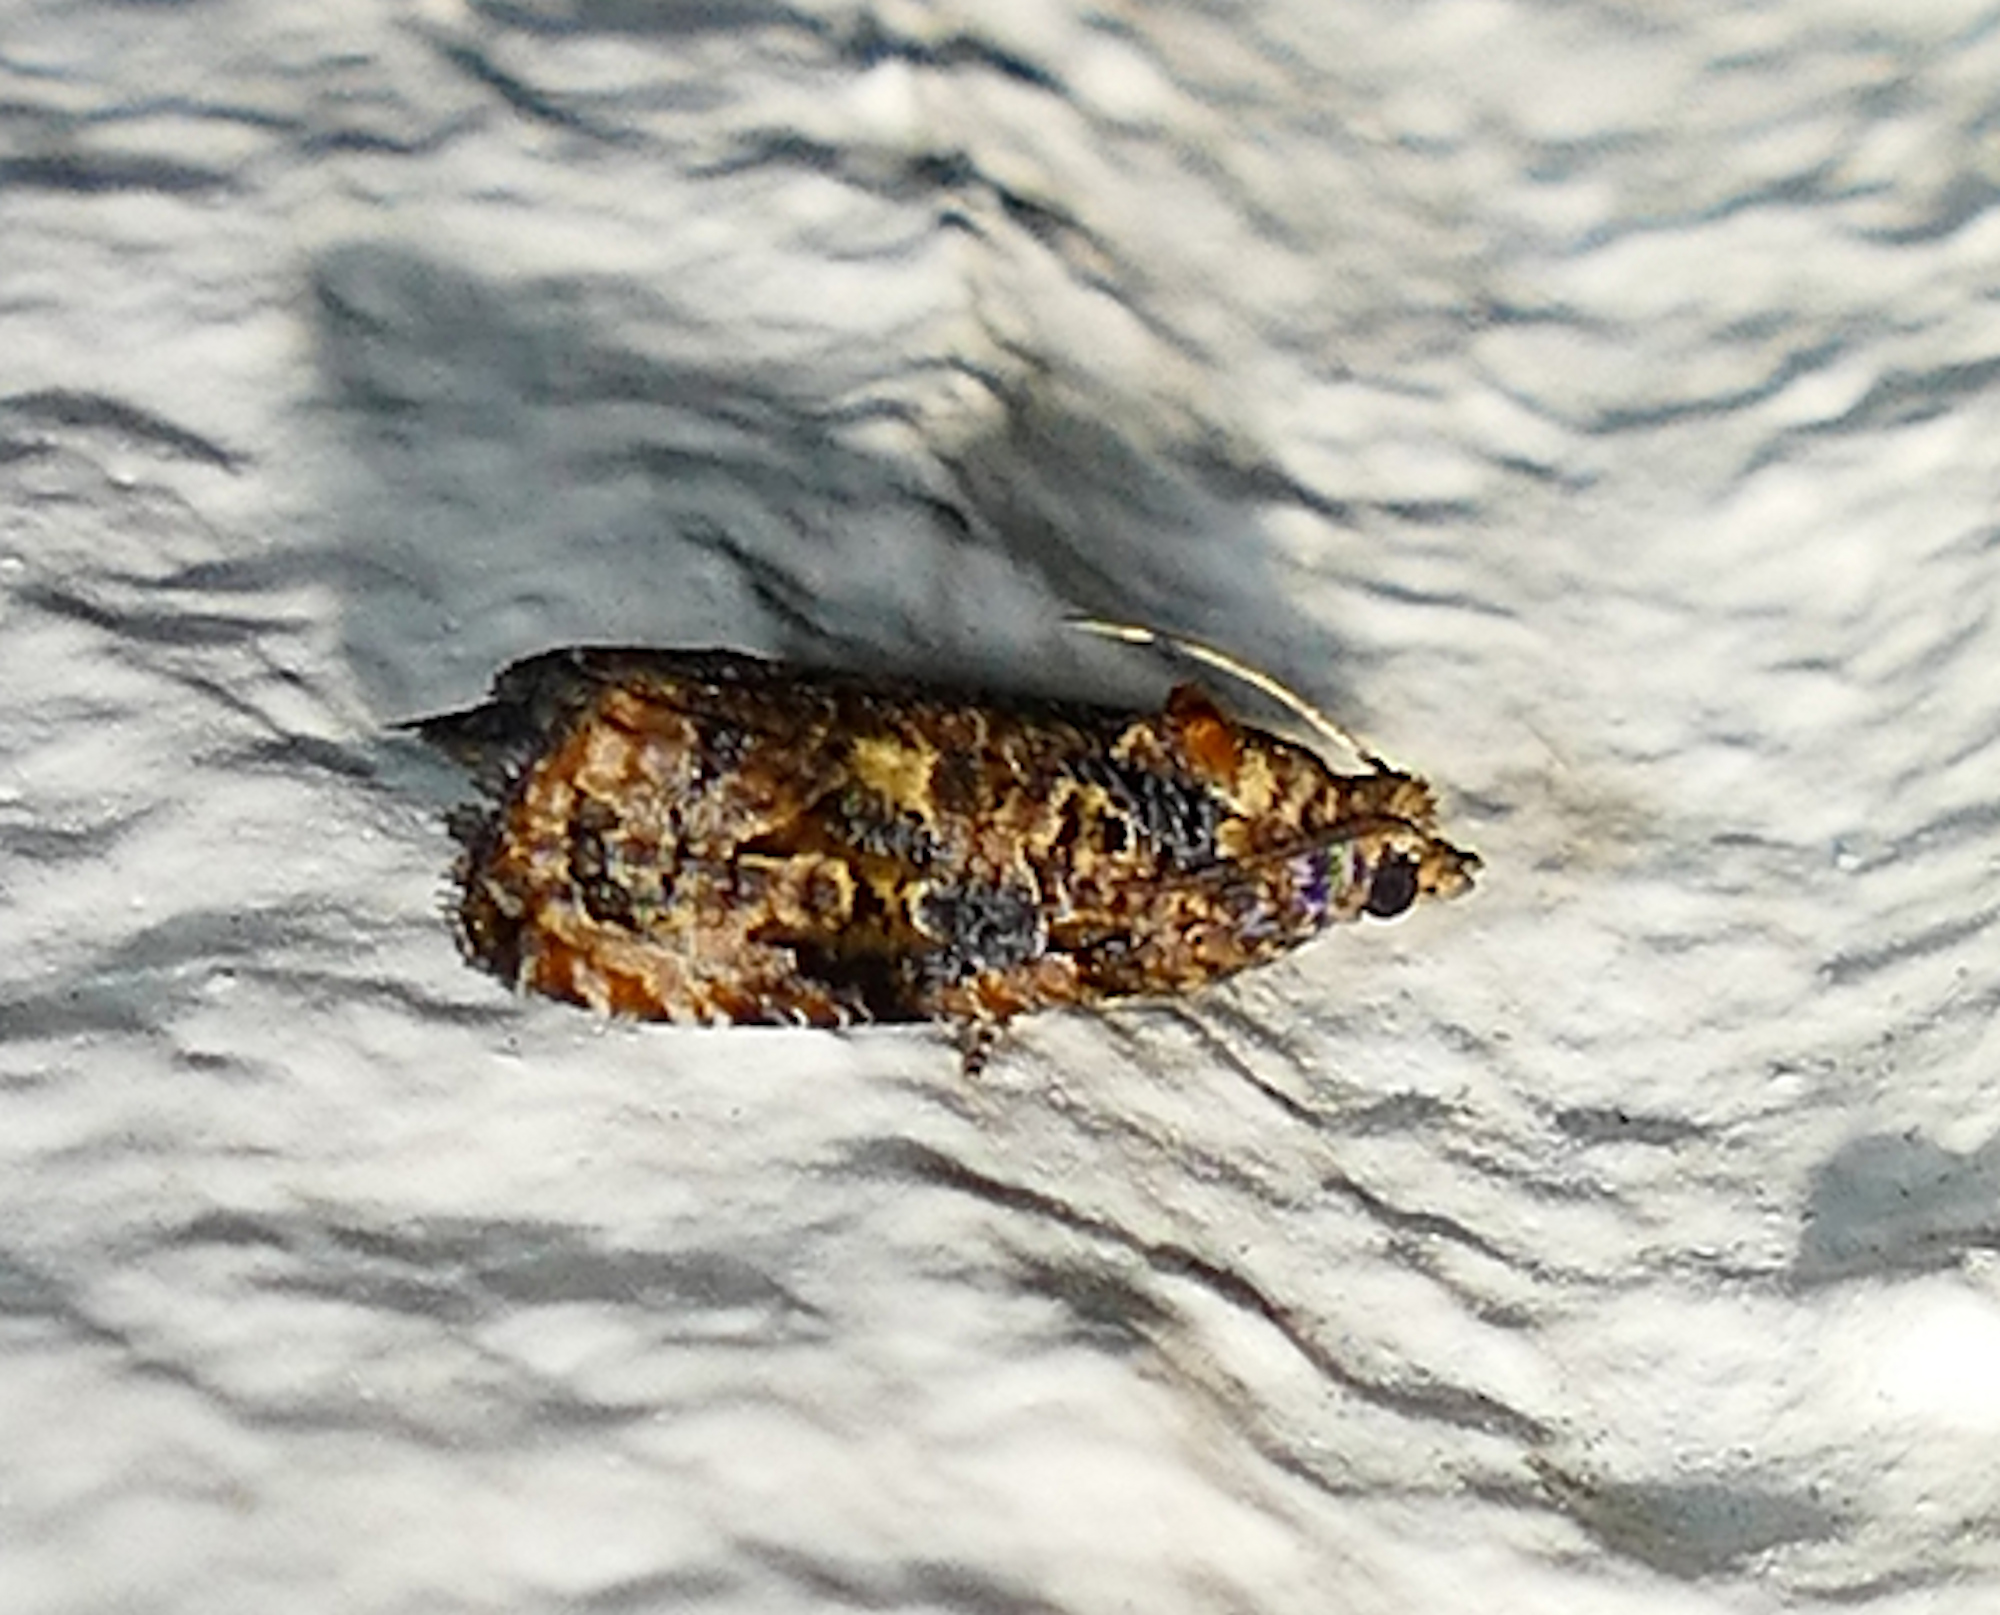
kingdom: Animalia
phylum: Arthropoda
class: Insecta
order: Lepidoptera
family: Tortricidae
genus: Endothenia
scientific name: Endothenia hebesana
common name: Verbena bud moth
